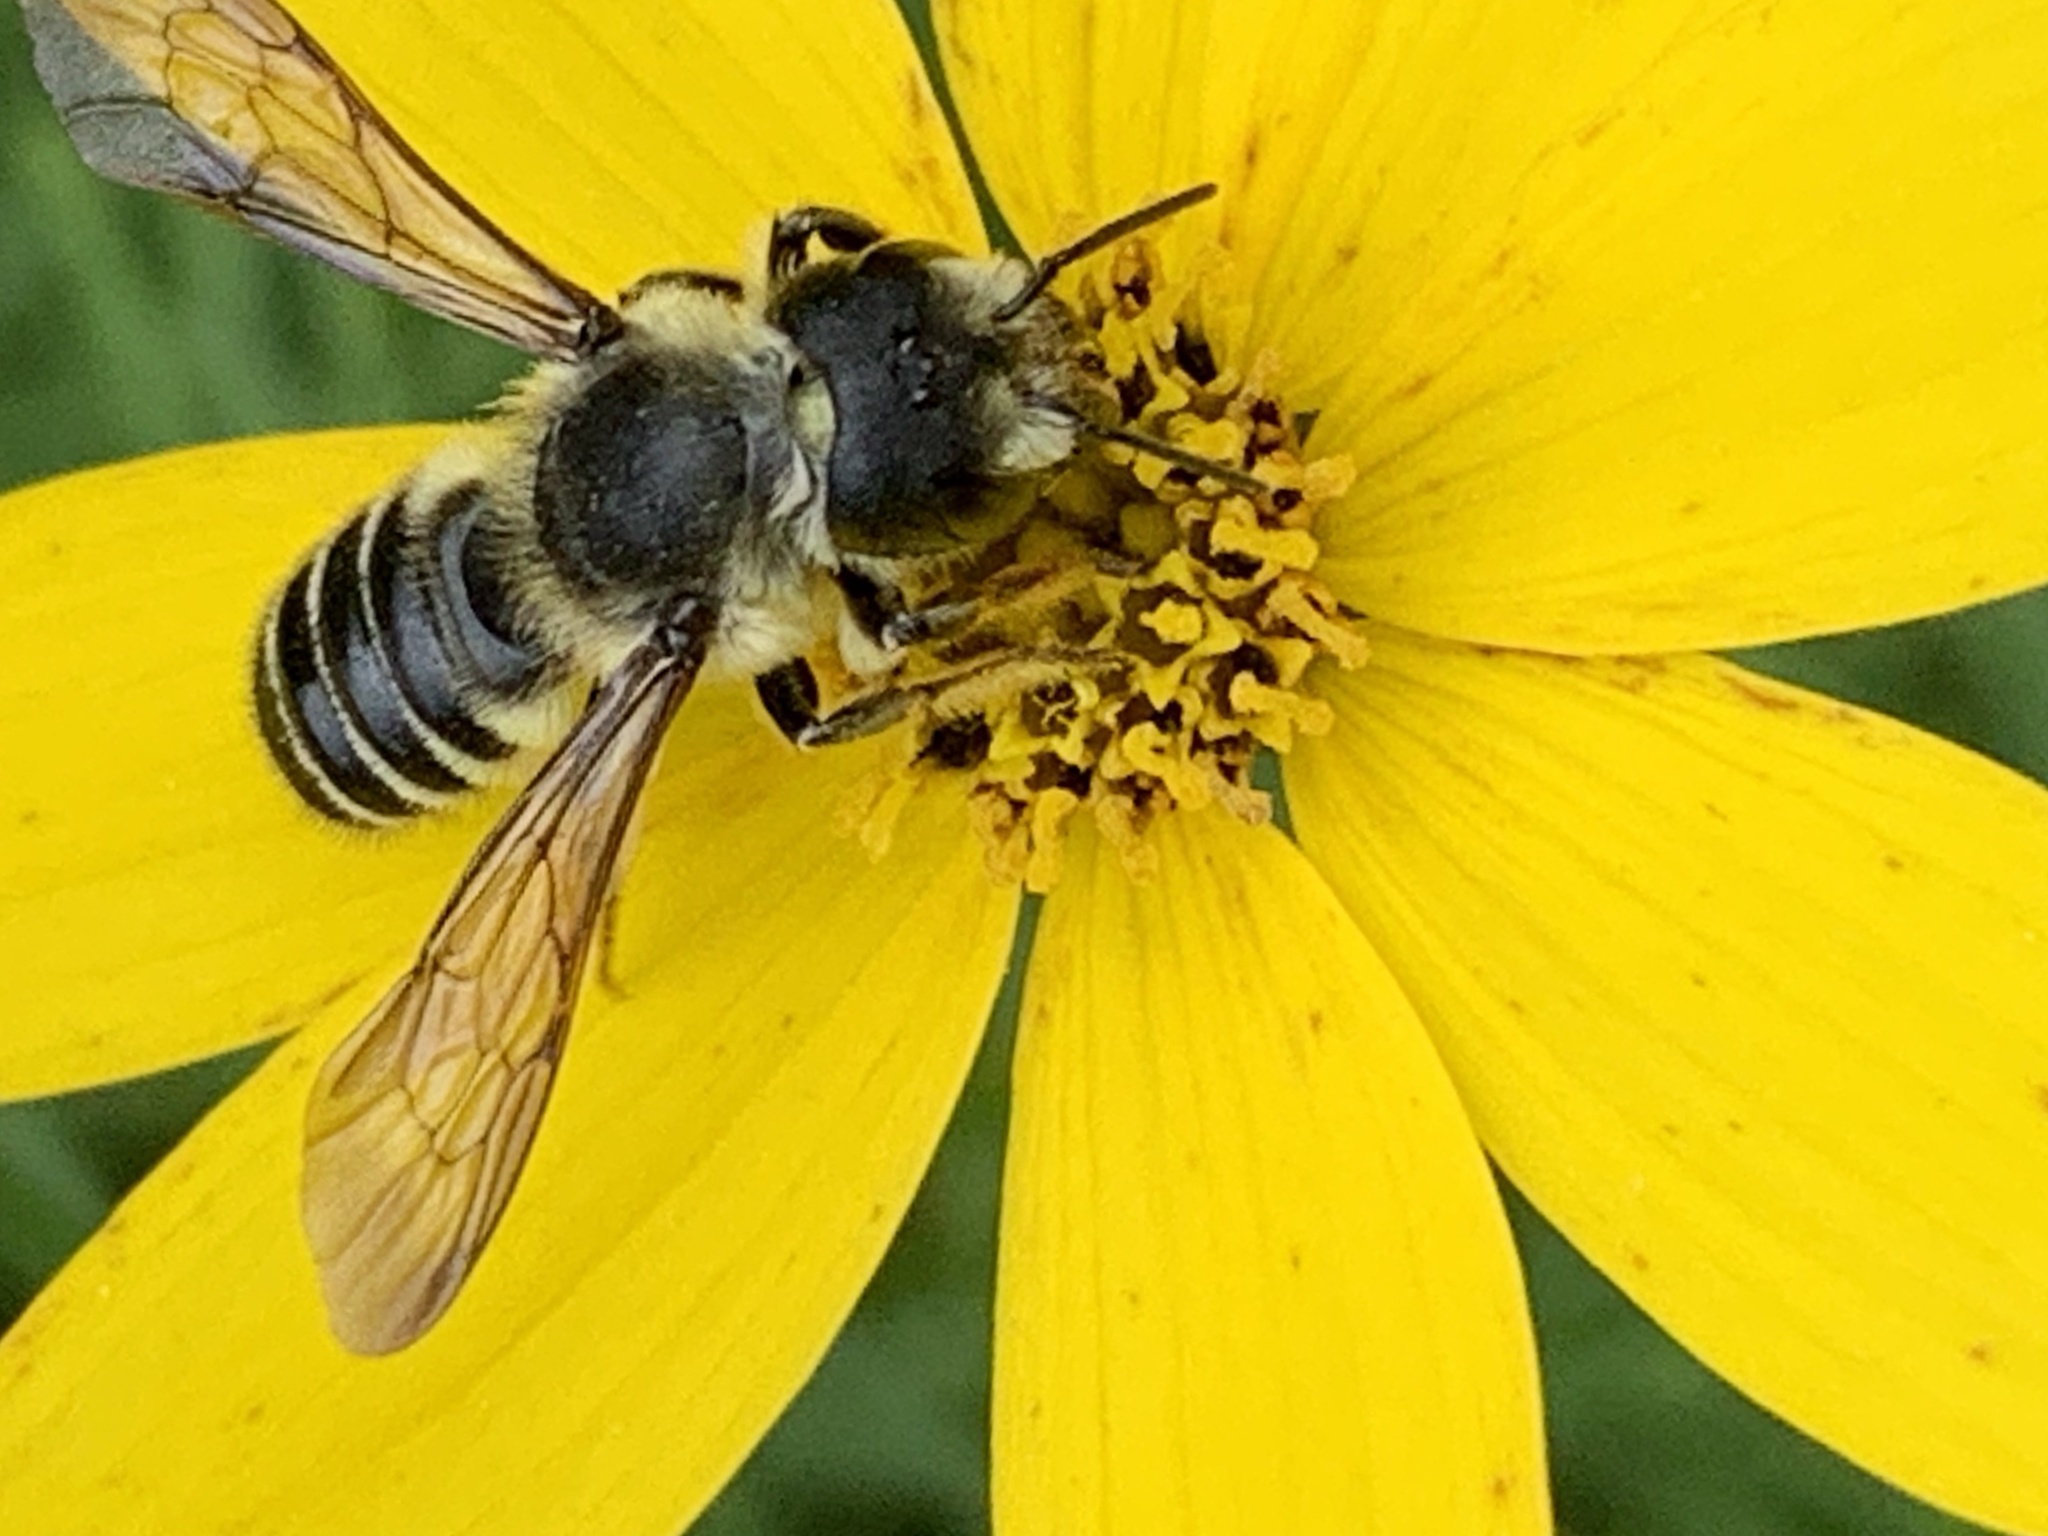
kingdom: Animalia
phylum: Arthropoda
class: Insecta
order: Hymenoptera
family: Megachilidae
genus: Megachile
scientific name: Megachile pugnata
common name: Pugnacious leafcutter bee
